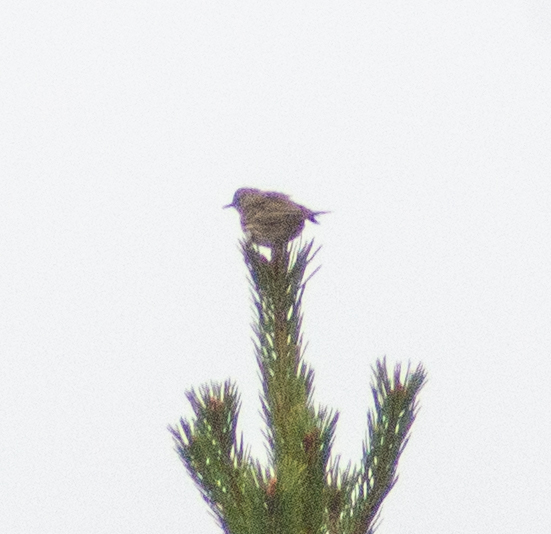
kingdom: Animalia
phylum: Chordata
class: Aves
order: Passeriformes
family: Prunellidae
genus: Prunella
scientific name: Prunella modularis
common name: Dunnock
